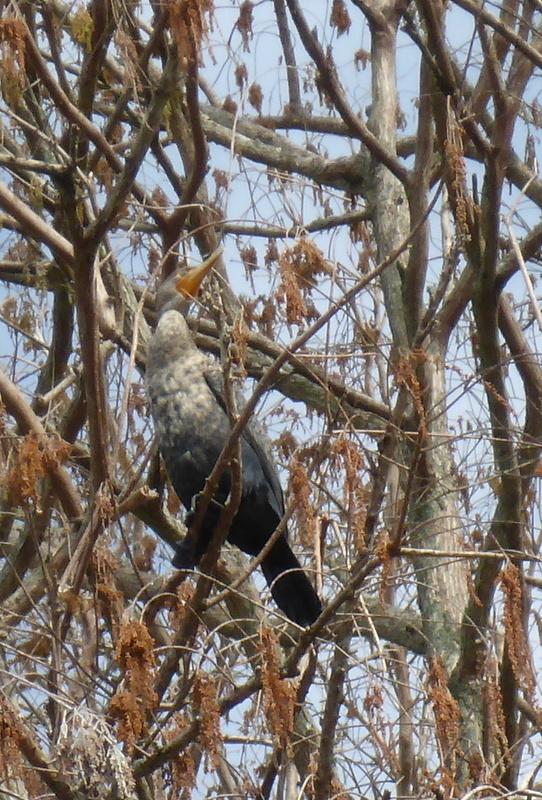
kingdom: Animalia
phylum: Chordata
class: Aves
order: Suliformes
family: Phalacrocoracidae
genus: Phalacrocorax
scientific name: Phalacrocorax auritus
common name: Double-crested cormorant
